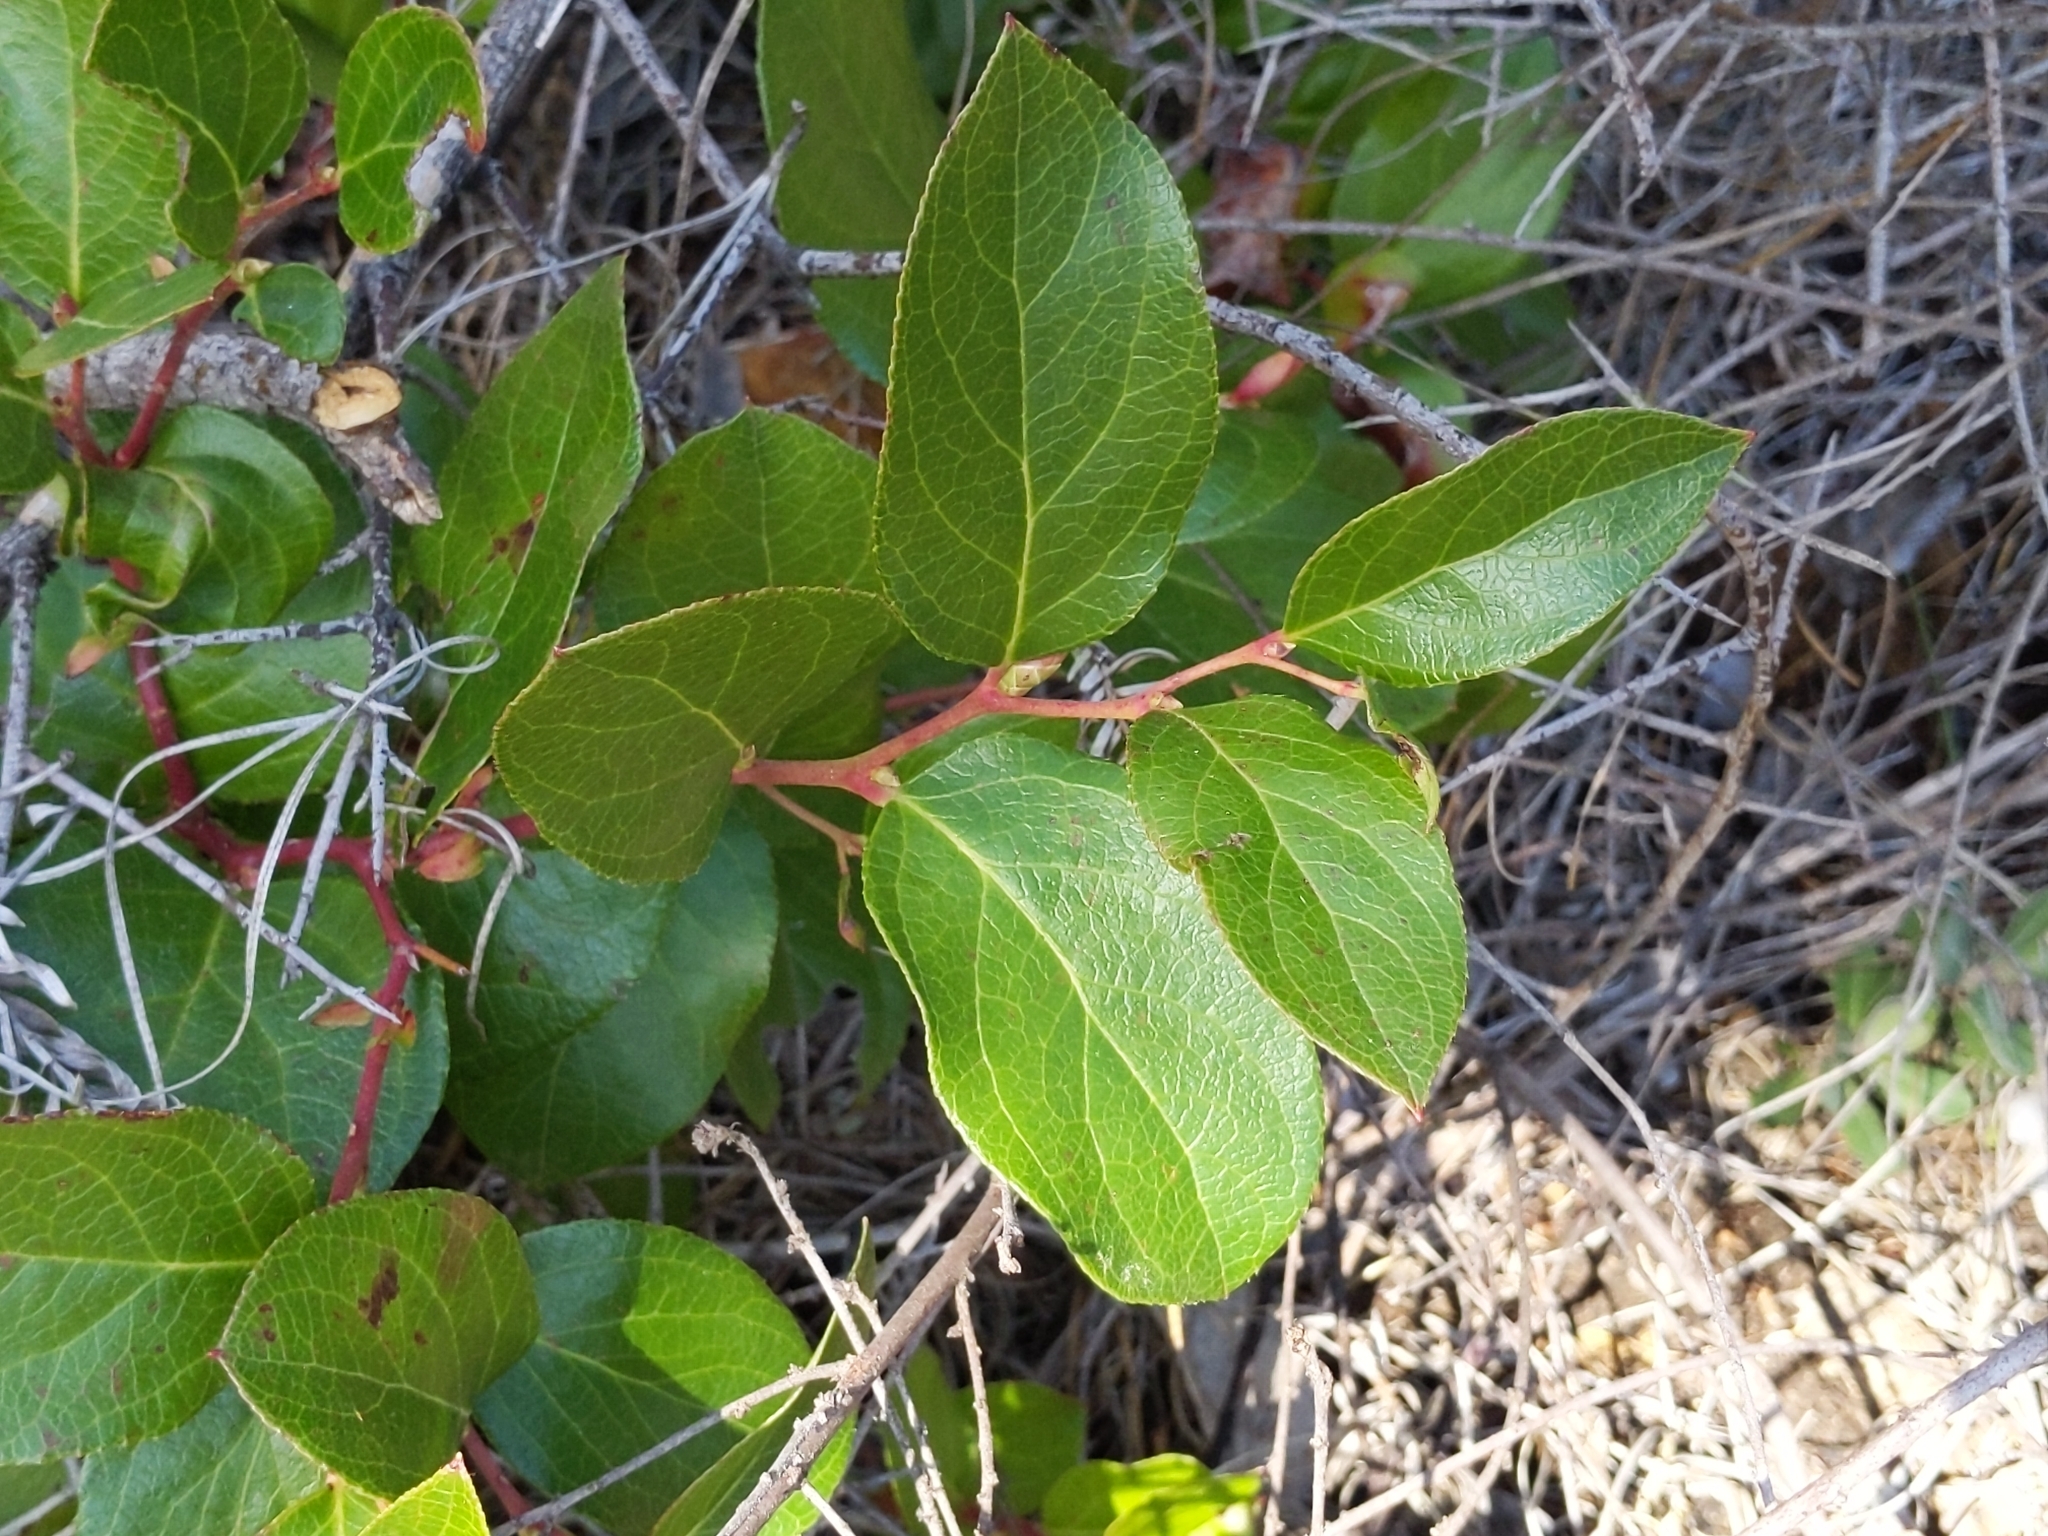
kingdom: Plantae
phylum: Tracheophyta
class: Magnoliopsida
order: Ericales
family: Ericaceae
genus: Gaultheria
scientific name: Gaultheria shallon
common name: Shallon
